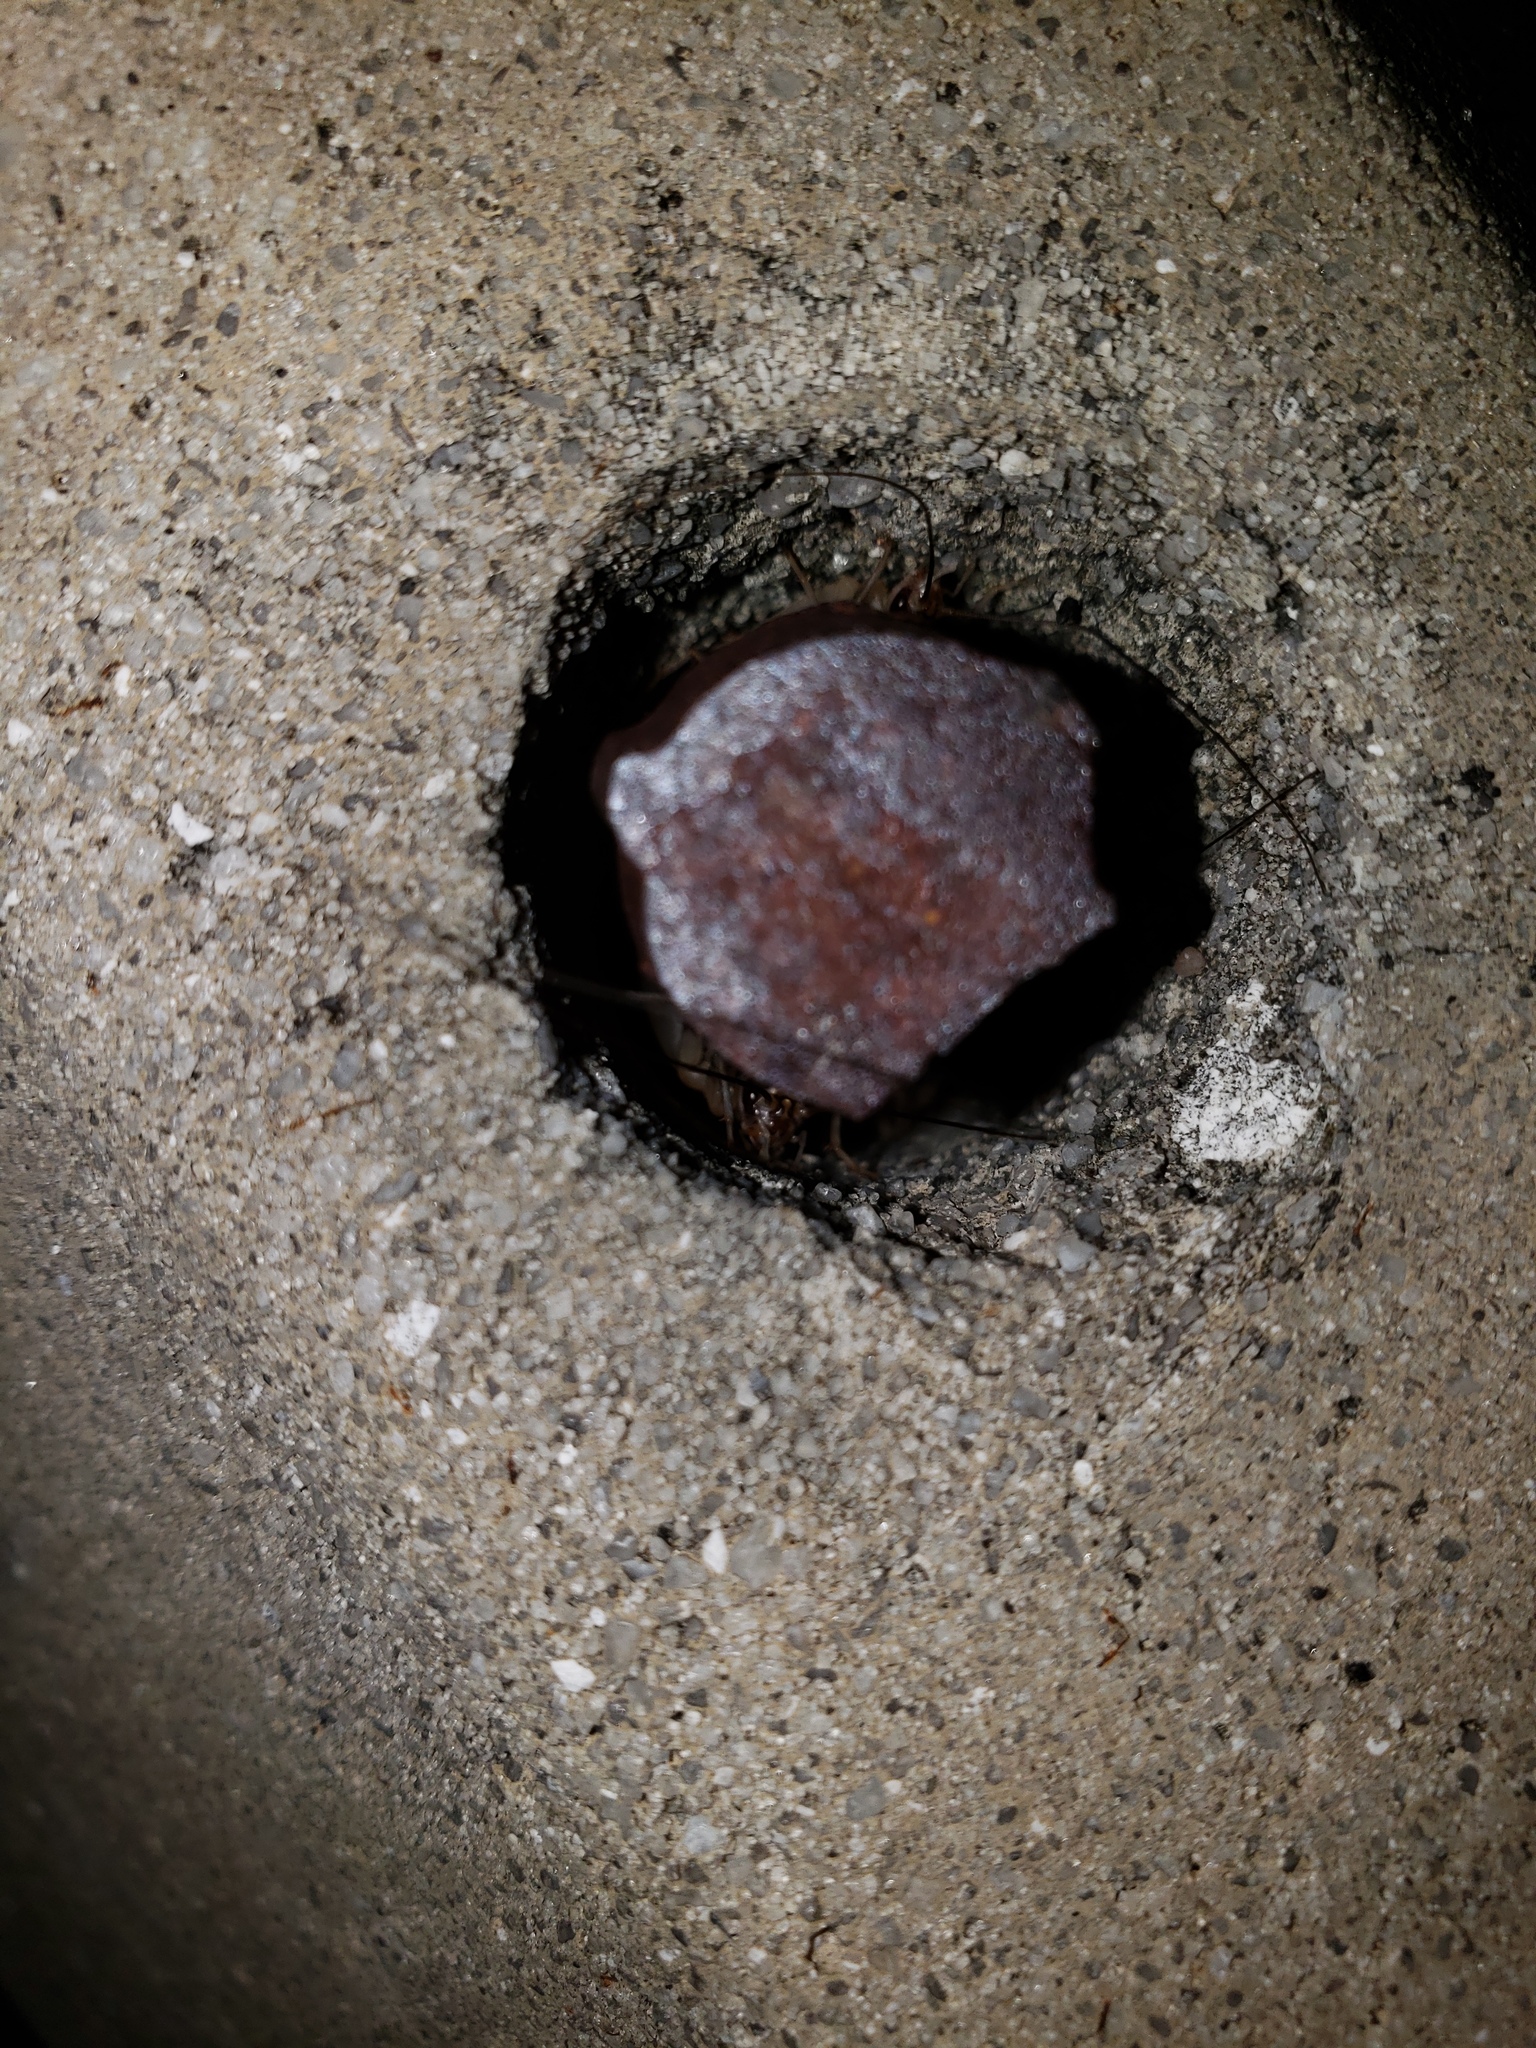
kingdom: Animalia
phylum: Arthropoda
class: Insecta
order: Orthoptera
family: Gryllidae
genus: Gryllodes
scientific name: Gryllodes sigillatus
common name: Tropical house cricket
